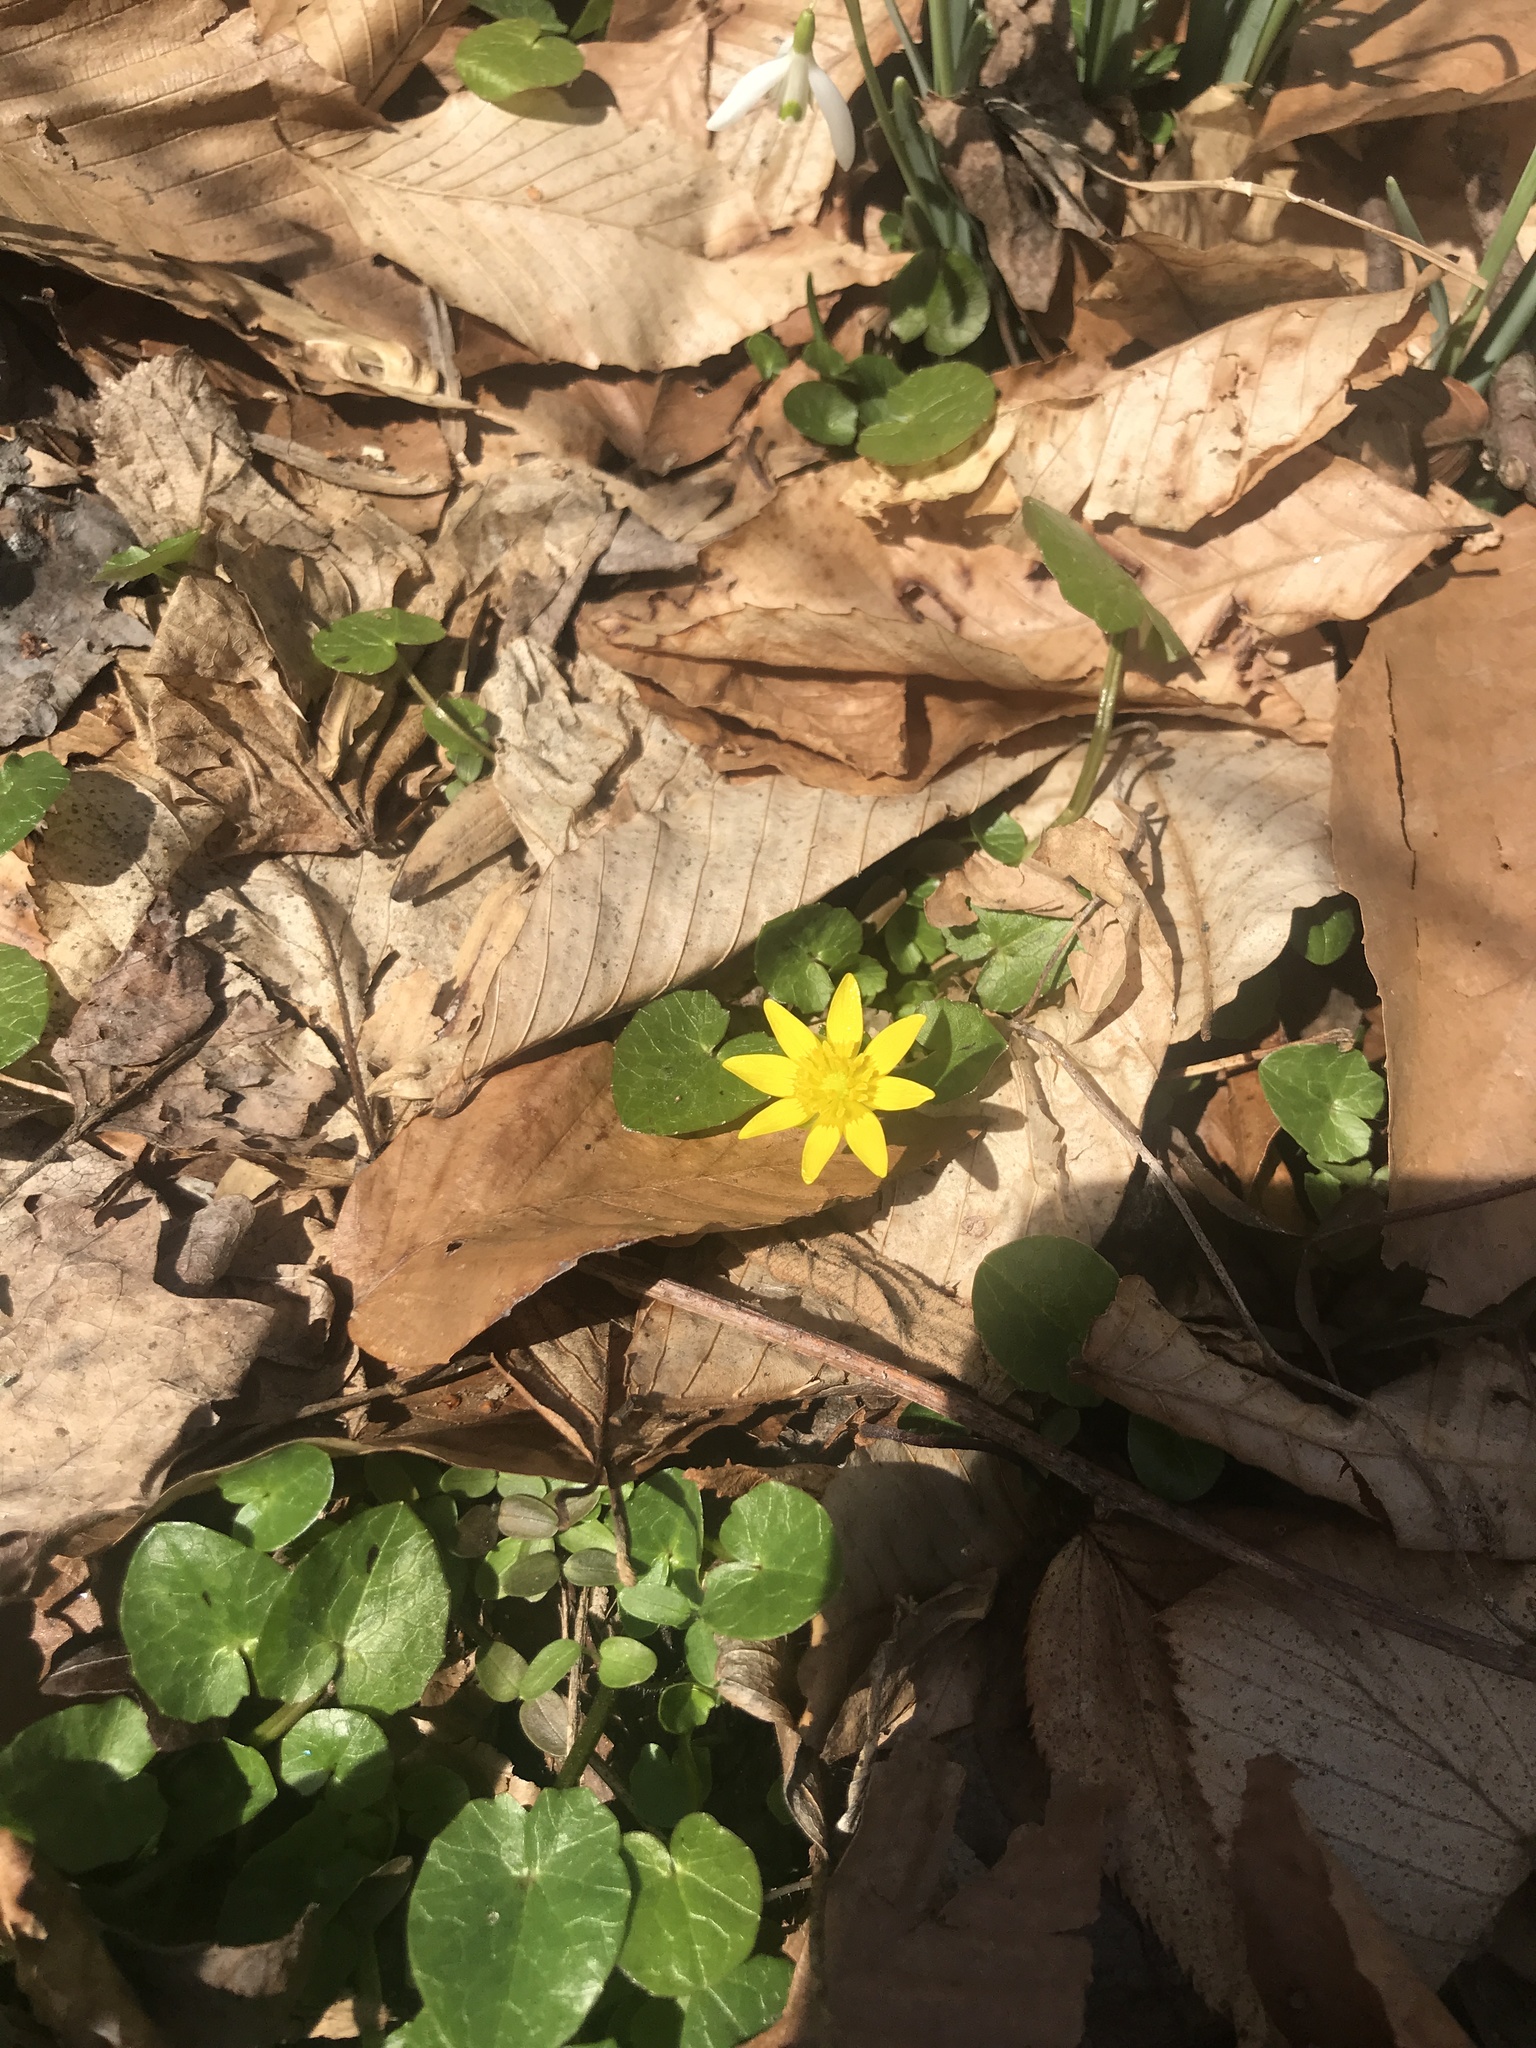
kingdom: Plantae
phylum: Tracheophyta
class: Magnoliopsida
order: Ranunculales
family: Ranunculaceae
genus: Ficaria
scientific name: Ficaria verna
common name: Lesser celandine
